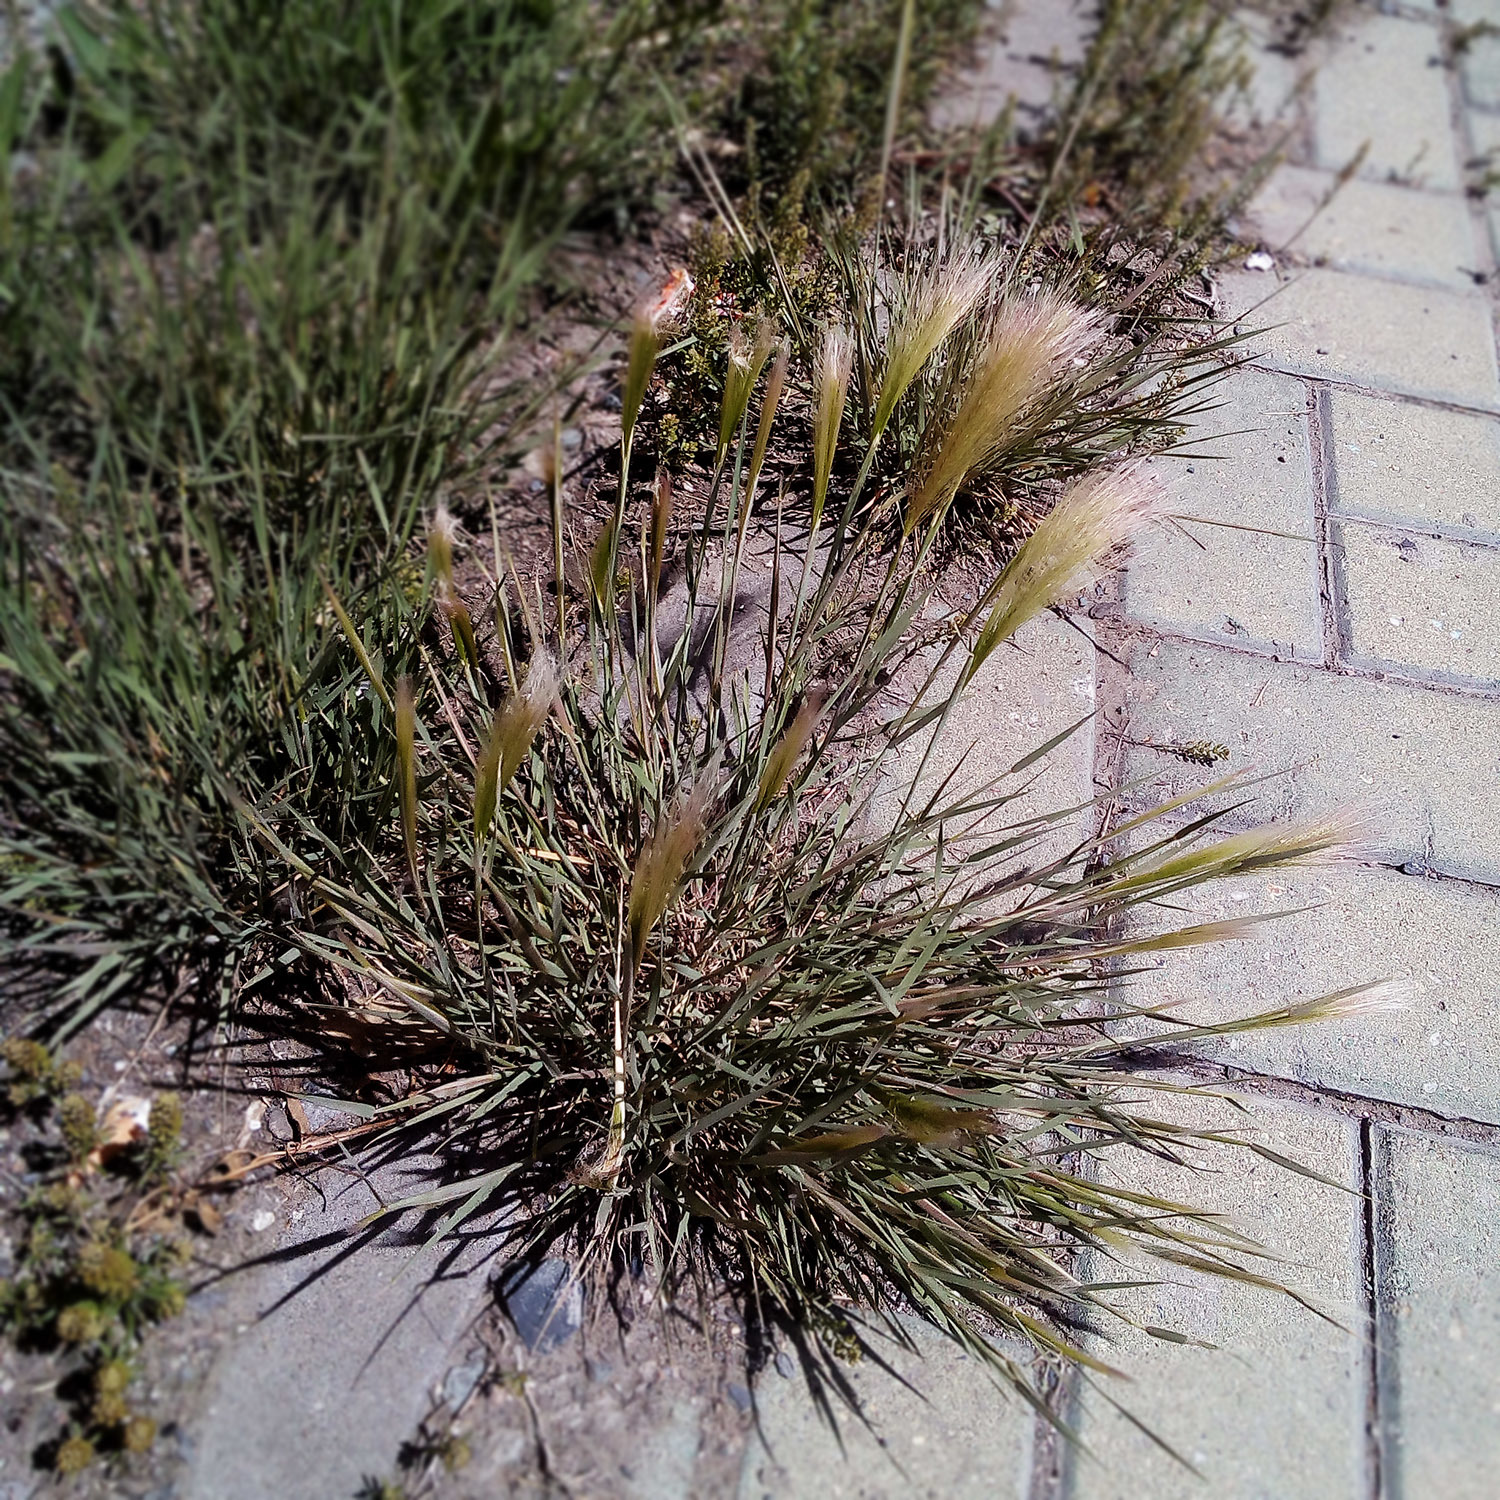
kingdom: Plantae
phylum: Tracheophyta
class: Liliopsida
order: Poales
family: Poaceae
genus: Hordeum
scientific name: Hordeum jubatum
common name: Foxtail barley
